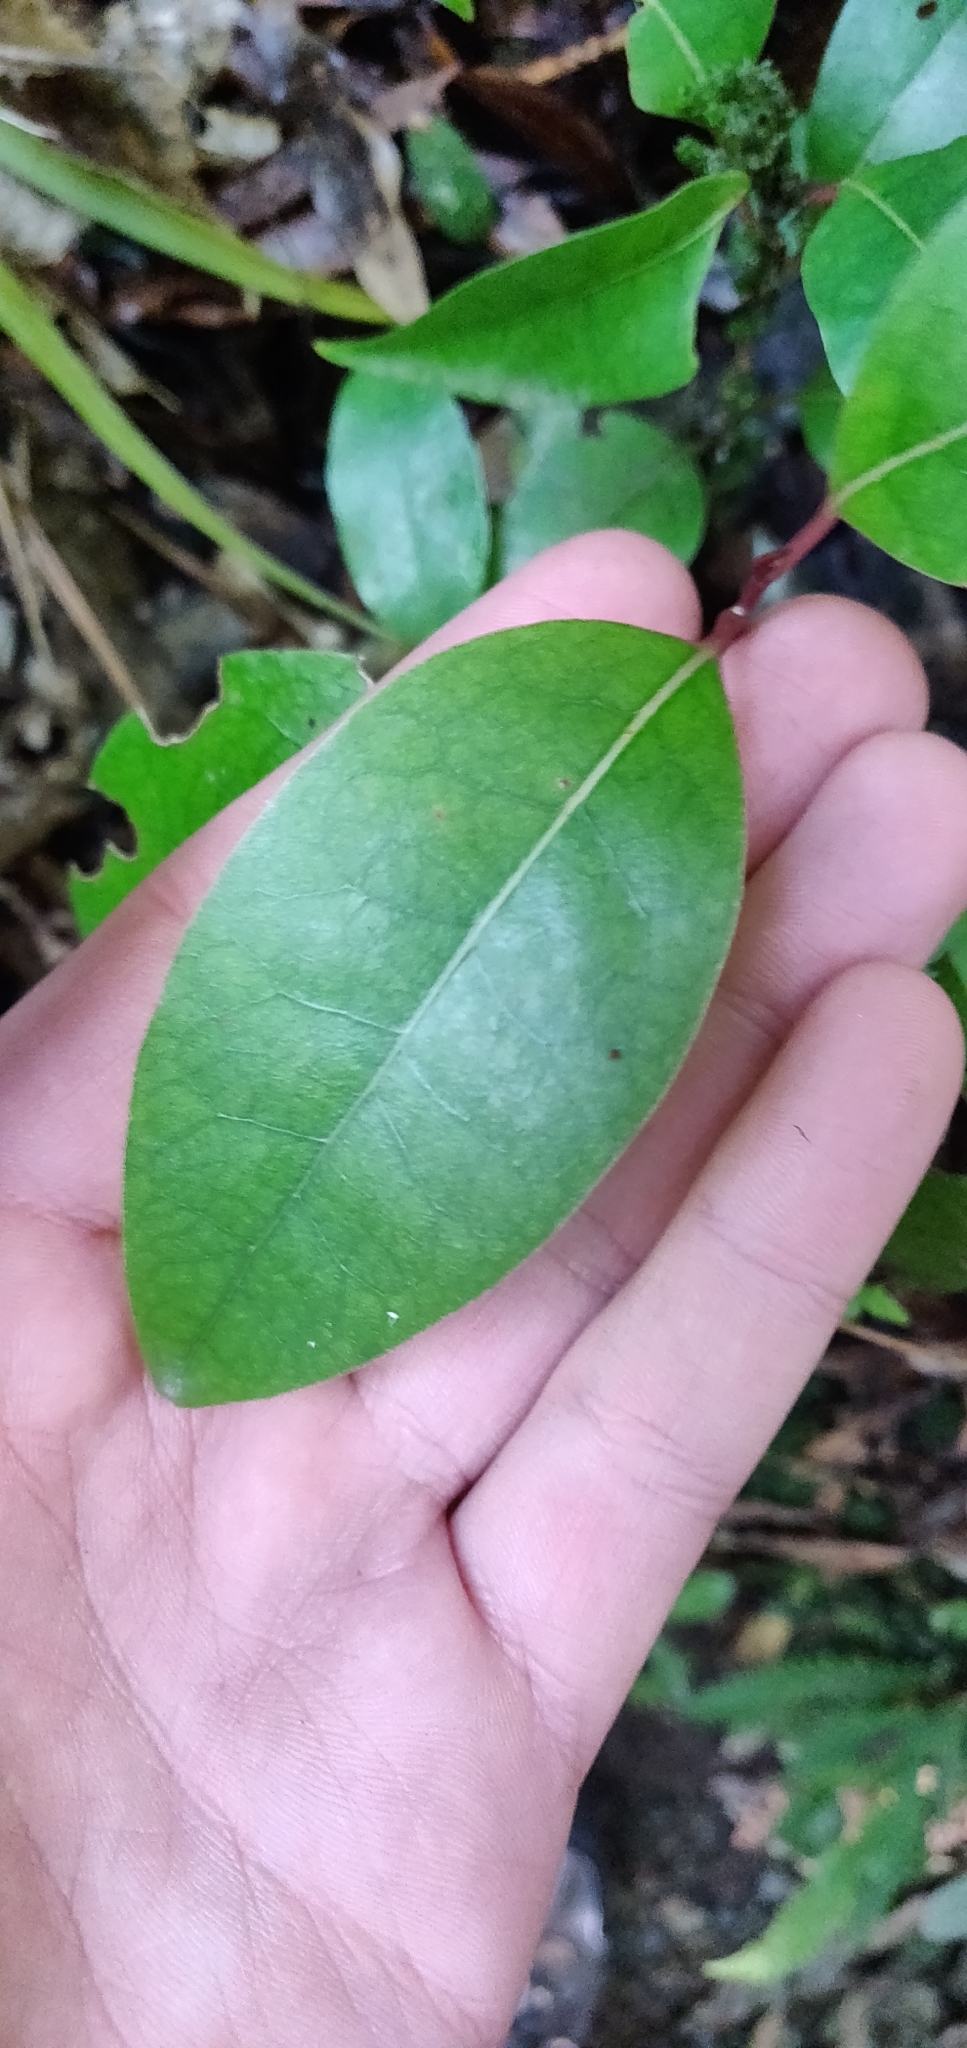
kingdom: Plantae
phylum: Tracheophyta
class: Magnoliopsida
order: Laurales
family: Lauraceae
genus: Litsea
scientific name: Litsea calicaris
